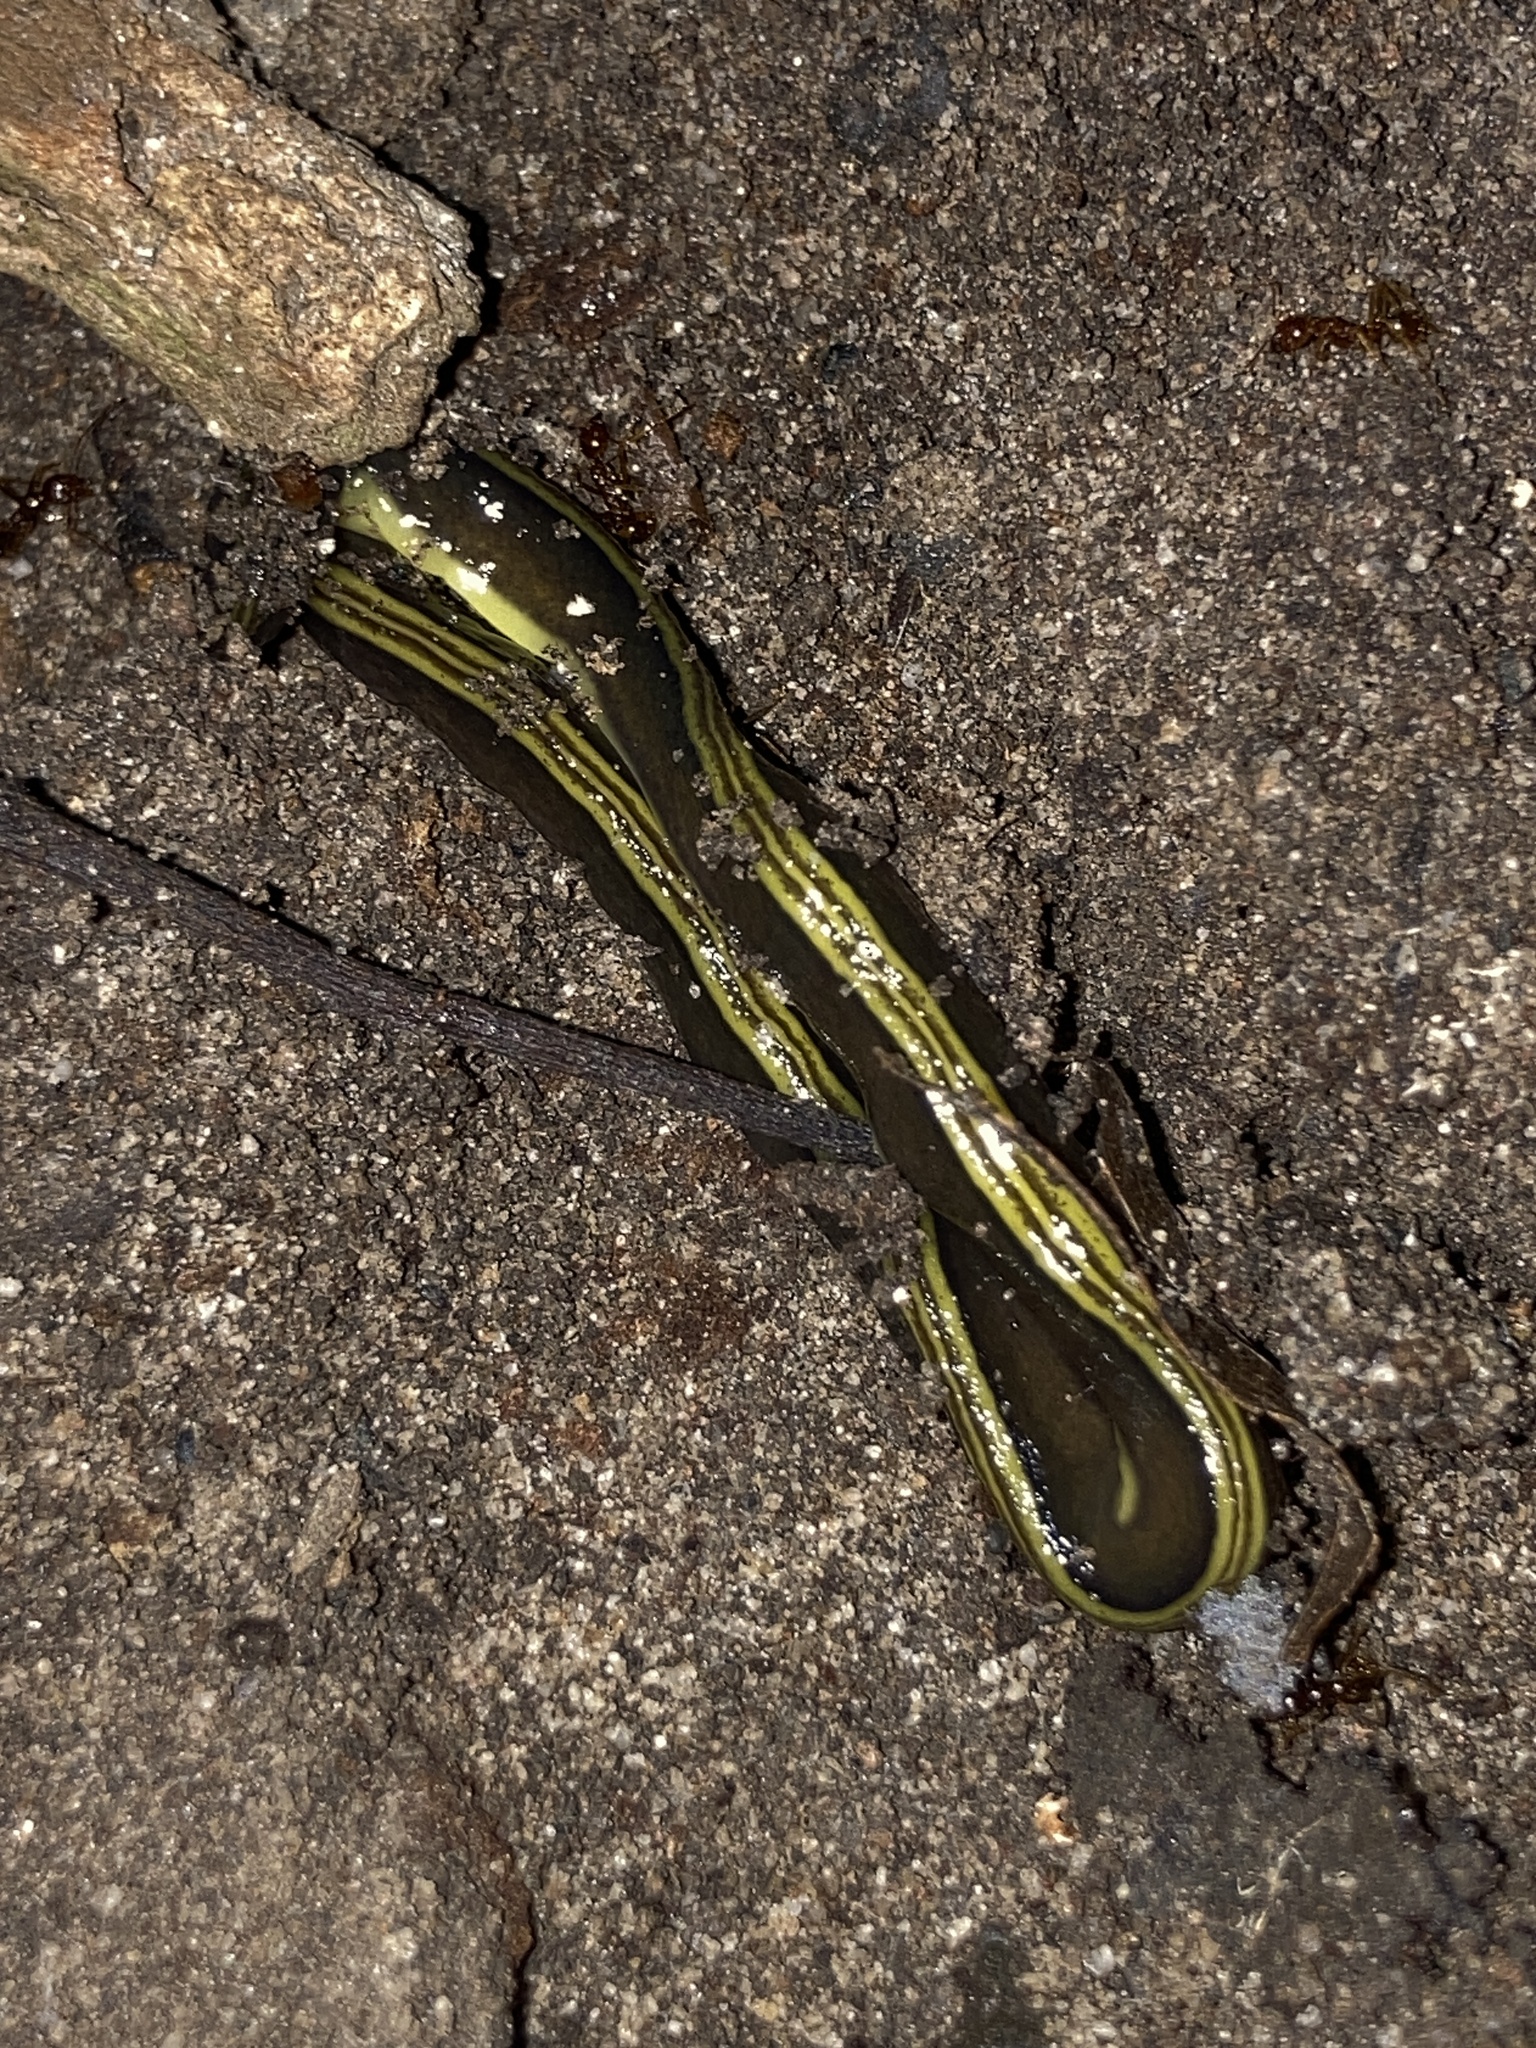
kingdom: Animalia
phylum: Platyhelminthes
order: Tricladida
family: Geoplanidae
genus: Caenoplana
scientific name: Caenoplana variegata
